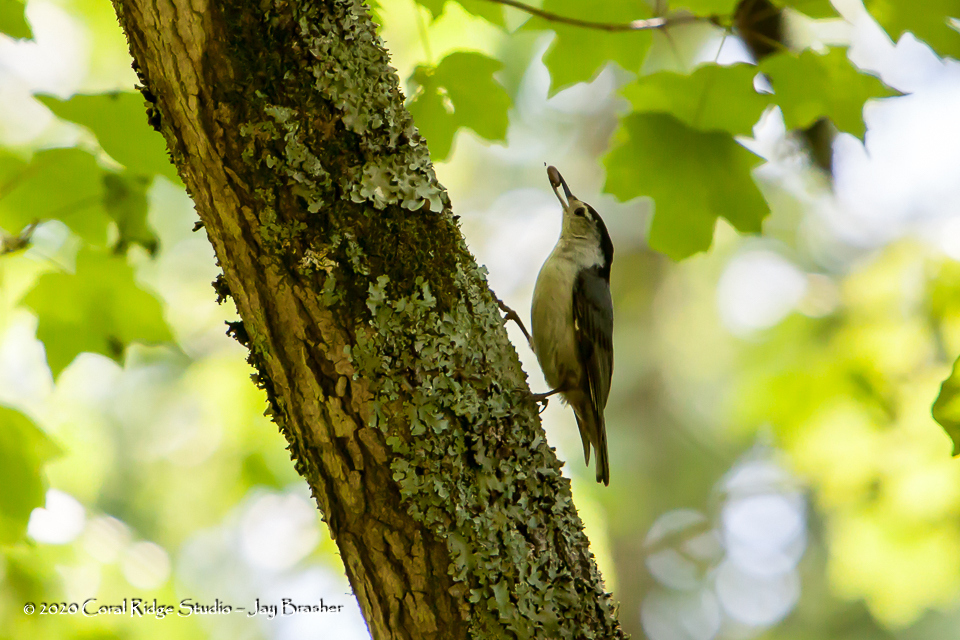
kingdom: Animalia
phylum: Chordata
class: Aves
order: Passeriformes
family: Sittidae
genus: Sitta
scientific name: Sitta carolinensis
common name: White-breasted nuthatch
